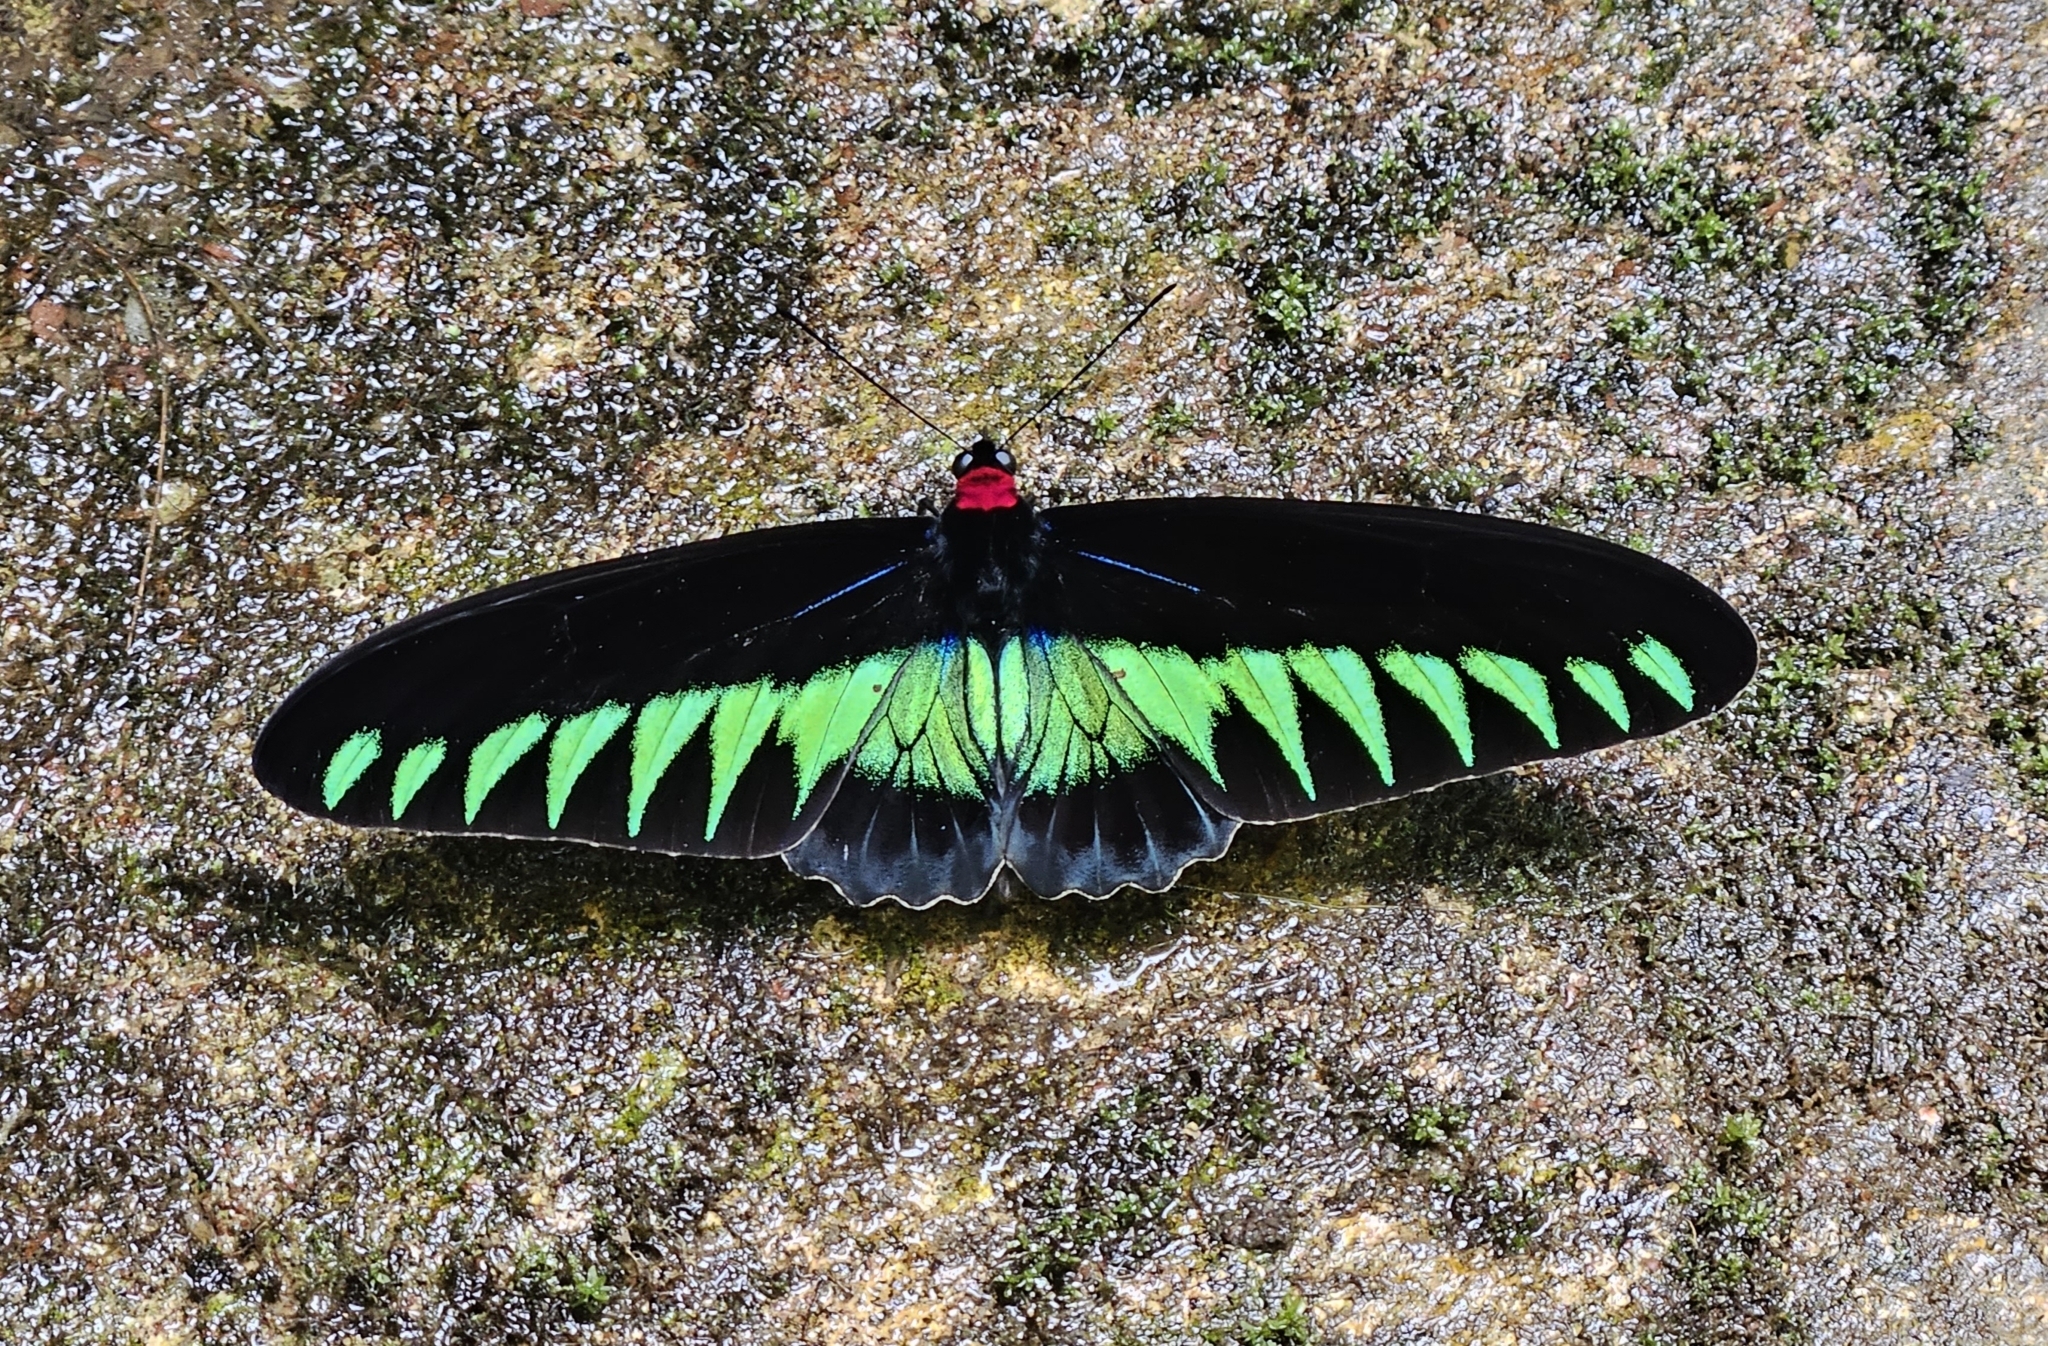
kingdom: Animalia
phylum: Arthropoda
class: Insecta
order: Lepidoptera
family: Papilionidae
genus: Trogonoptera
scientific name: Trogonoptera brookiana
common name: Raja brooke's birdwing
